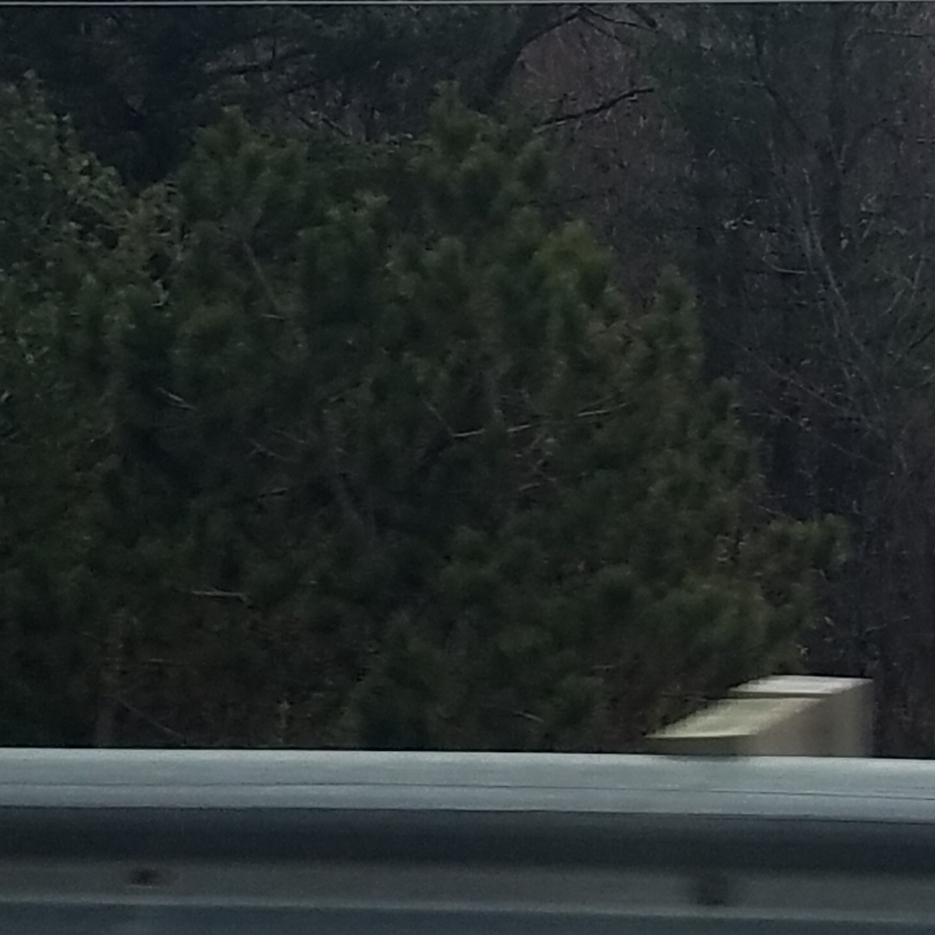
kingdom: Plantae
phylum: Tracheophyta
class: Pinopsida
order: Pinales
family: Pinaceae
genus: Pinus
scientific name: Pinus resinosa
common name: Norway pine
